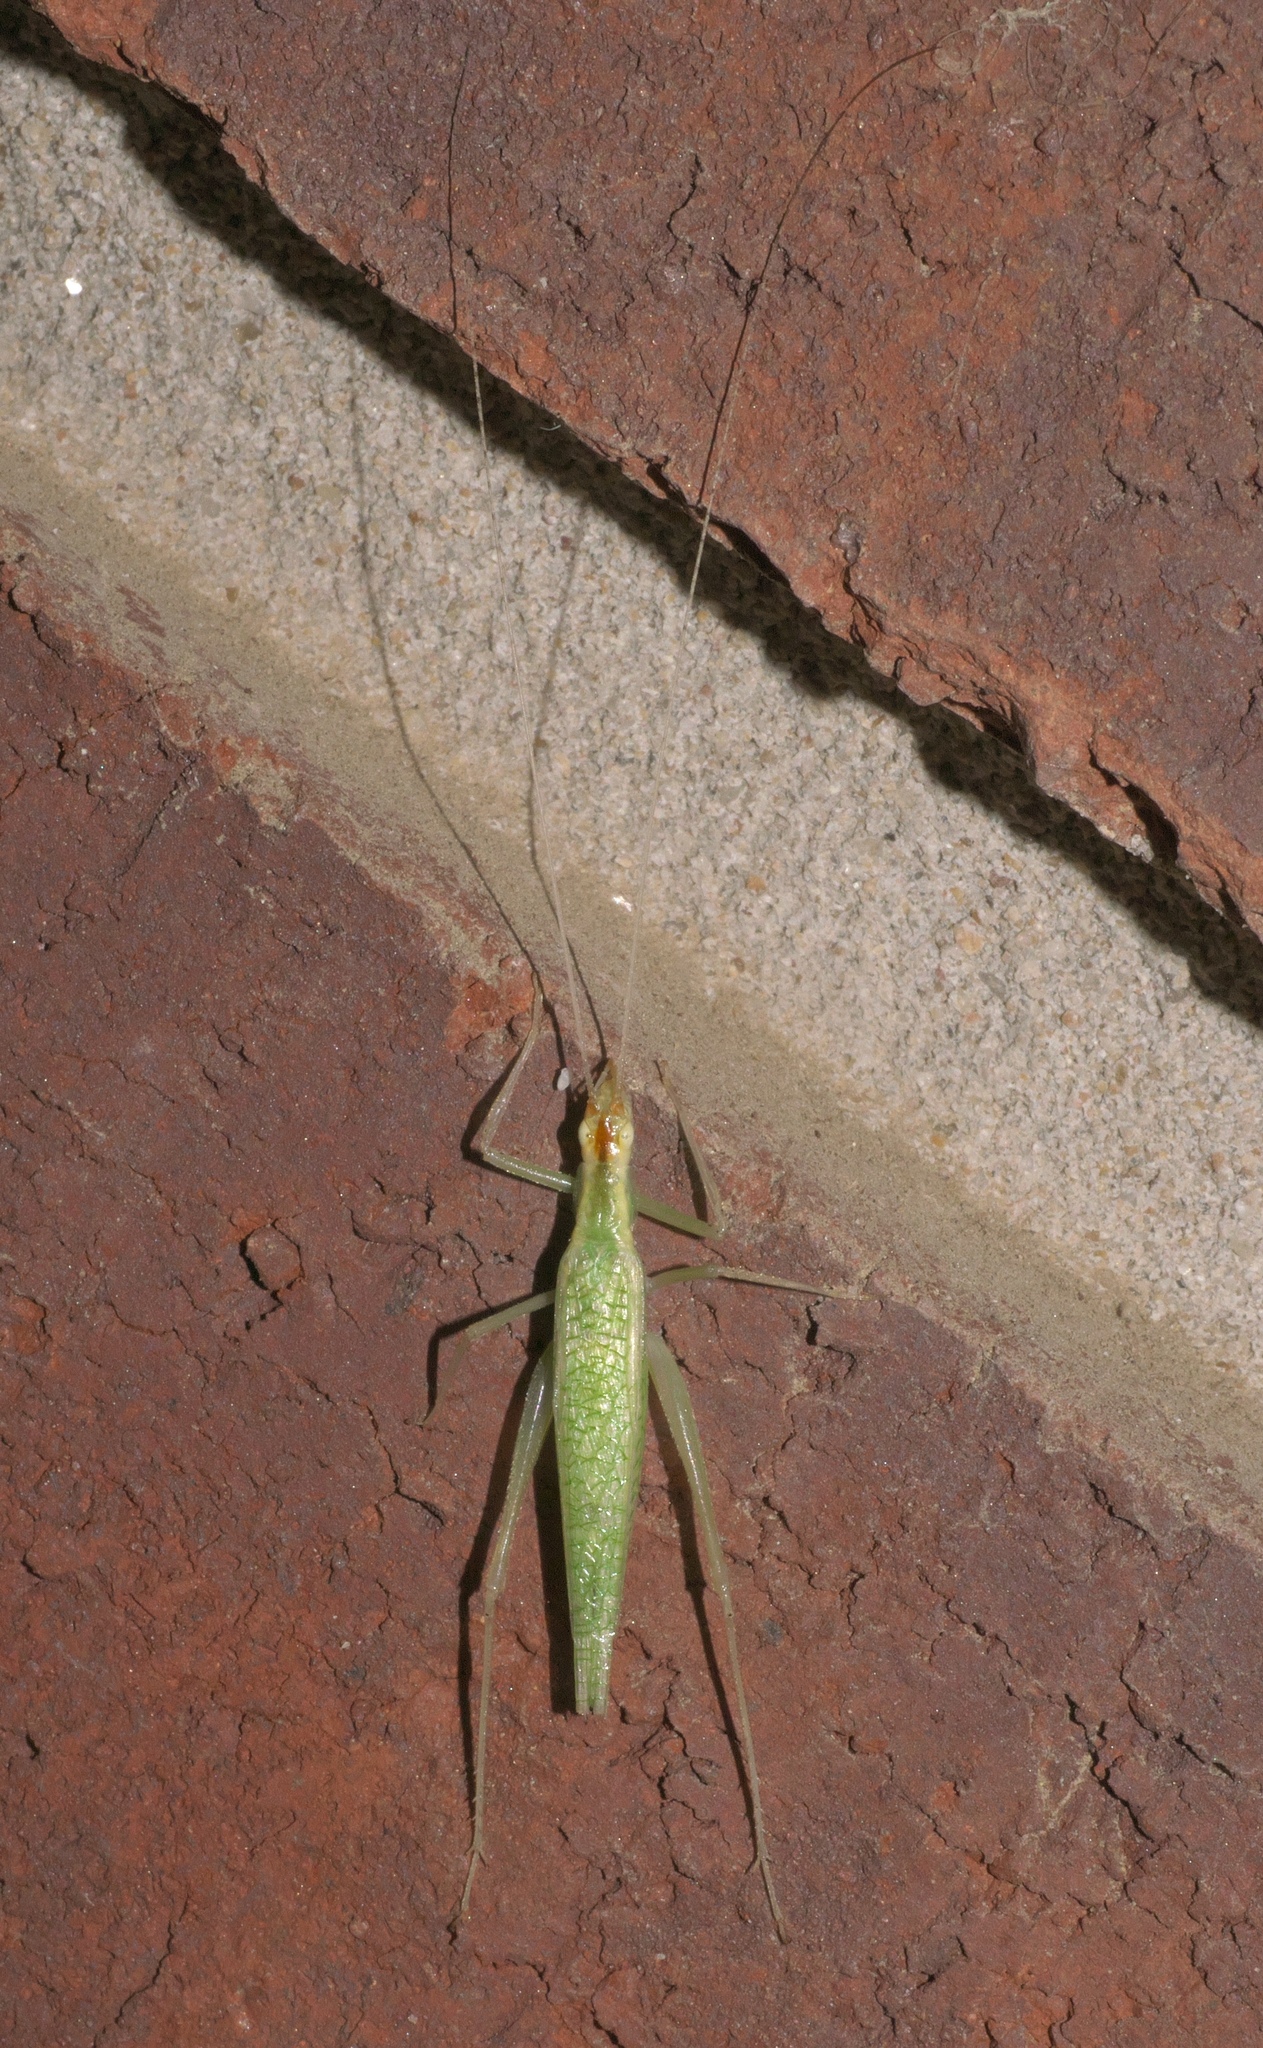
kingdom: Animalia
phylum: Arthropoda
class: Insecta
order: Orthoptera
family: Gryllidae
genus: Oecanthus
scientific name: Oecanthus niveus
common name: Narrow-winged tree cricket
